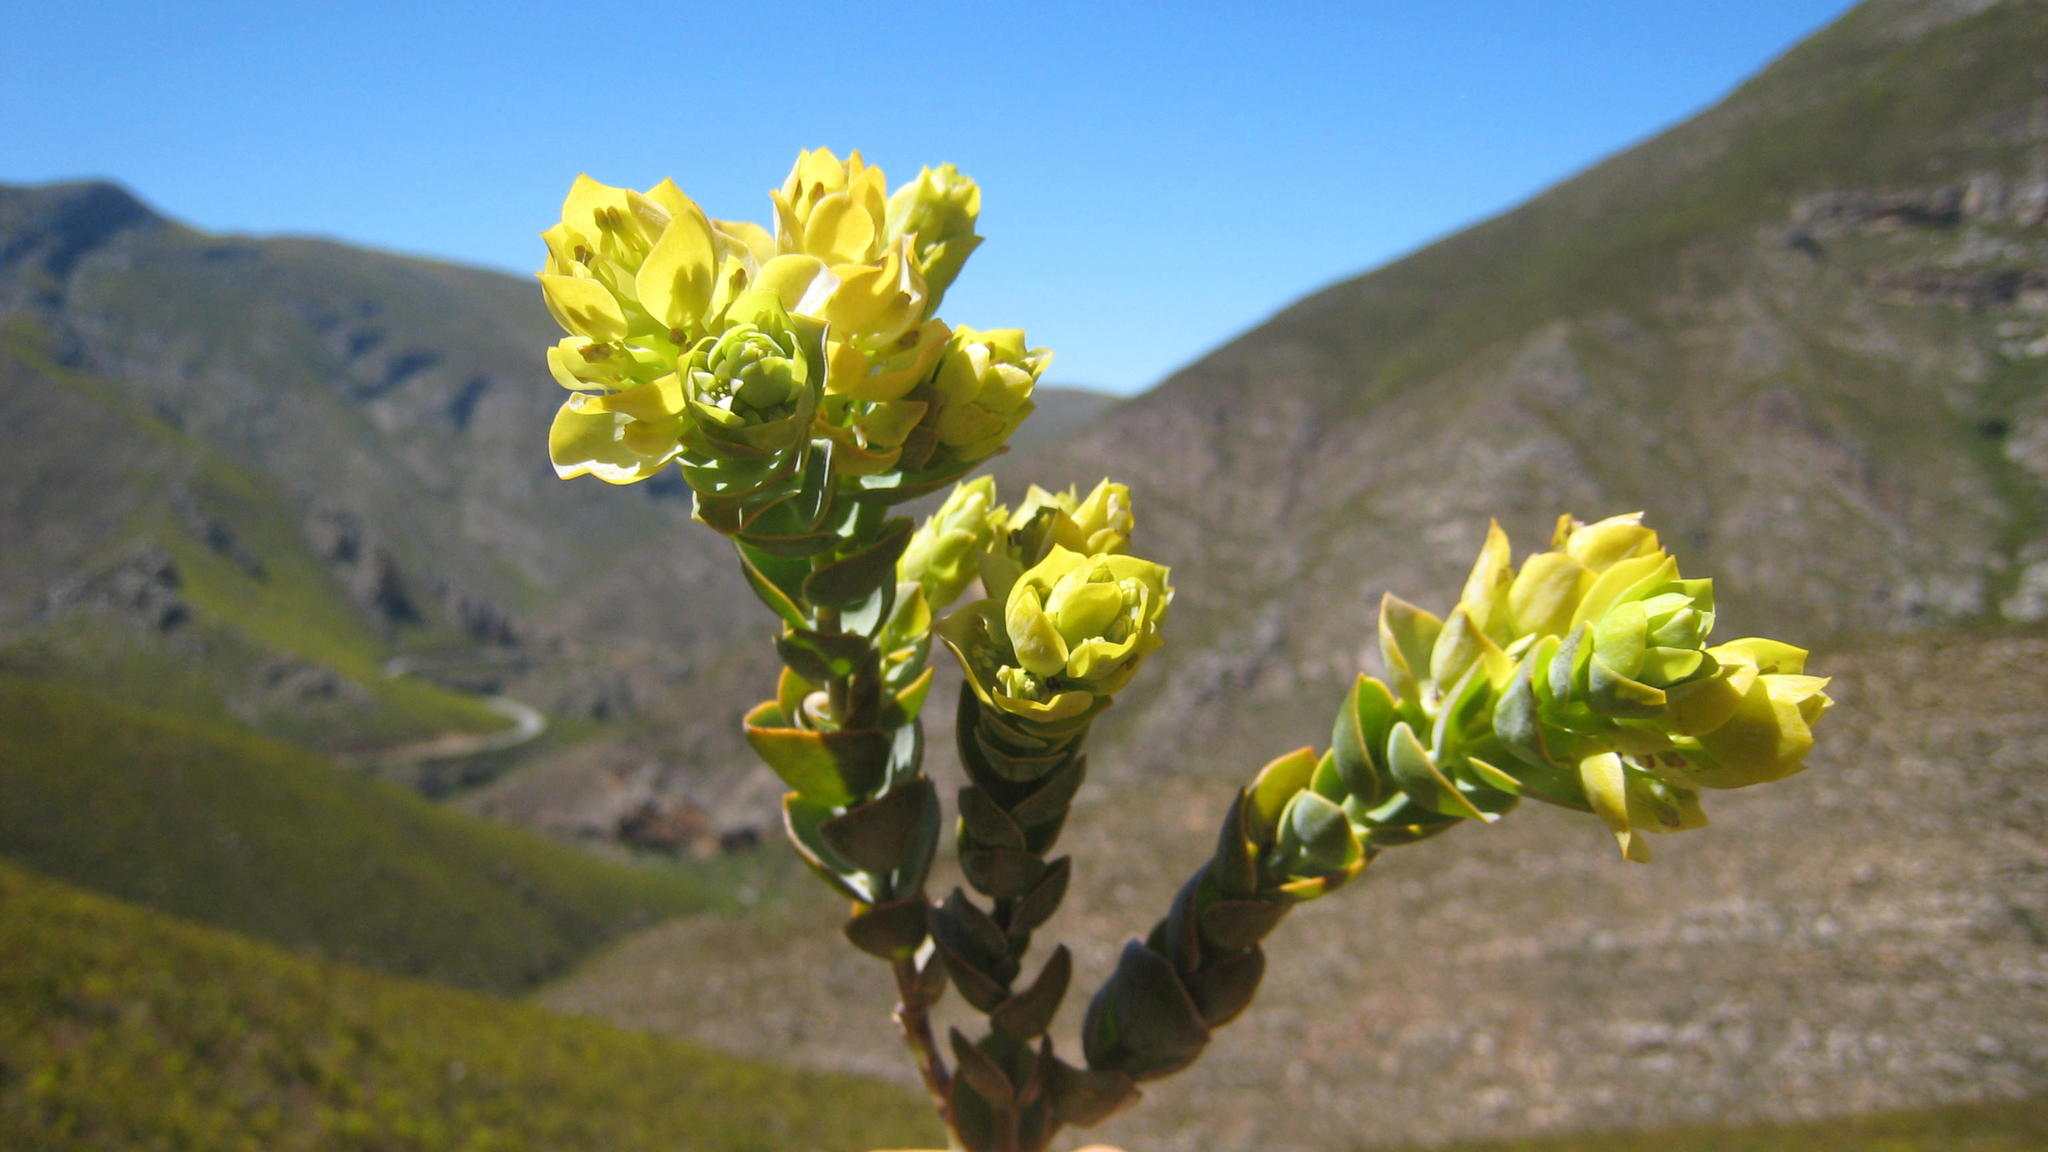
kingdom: Plantae
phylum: Tracheophyta
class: Magnoliopsida
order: Santalales
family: Thesiaceae
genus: Thesium
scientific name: Thesium euphorbioides
